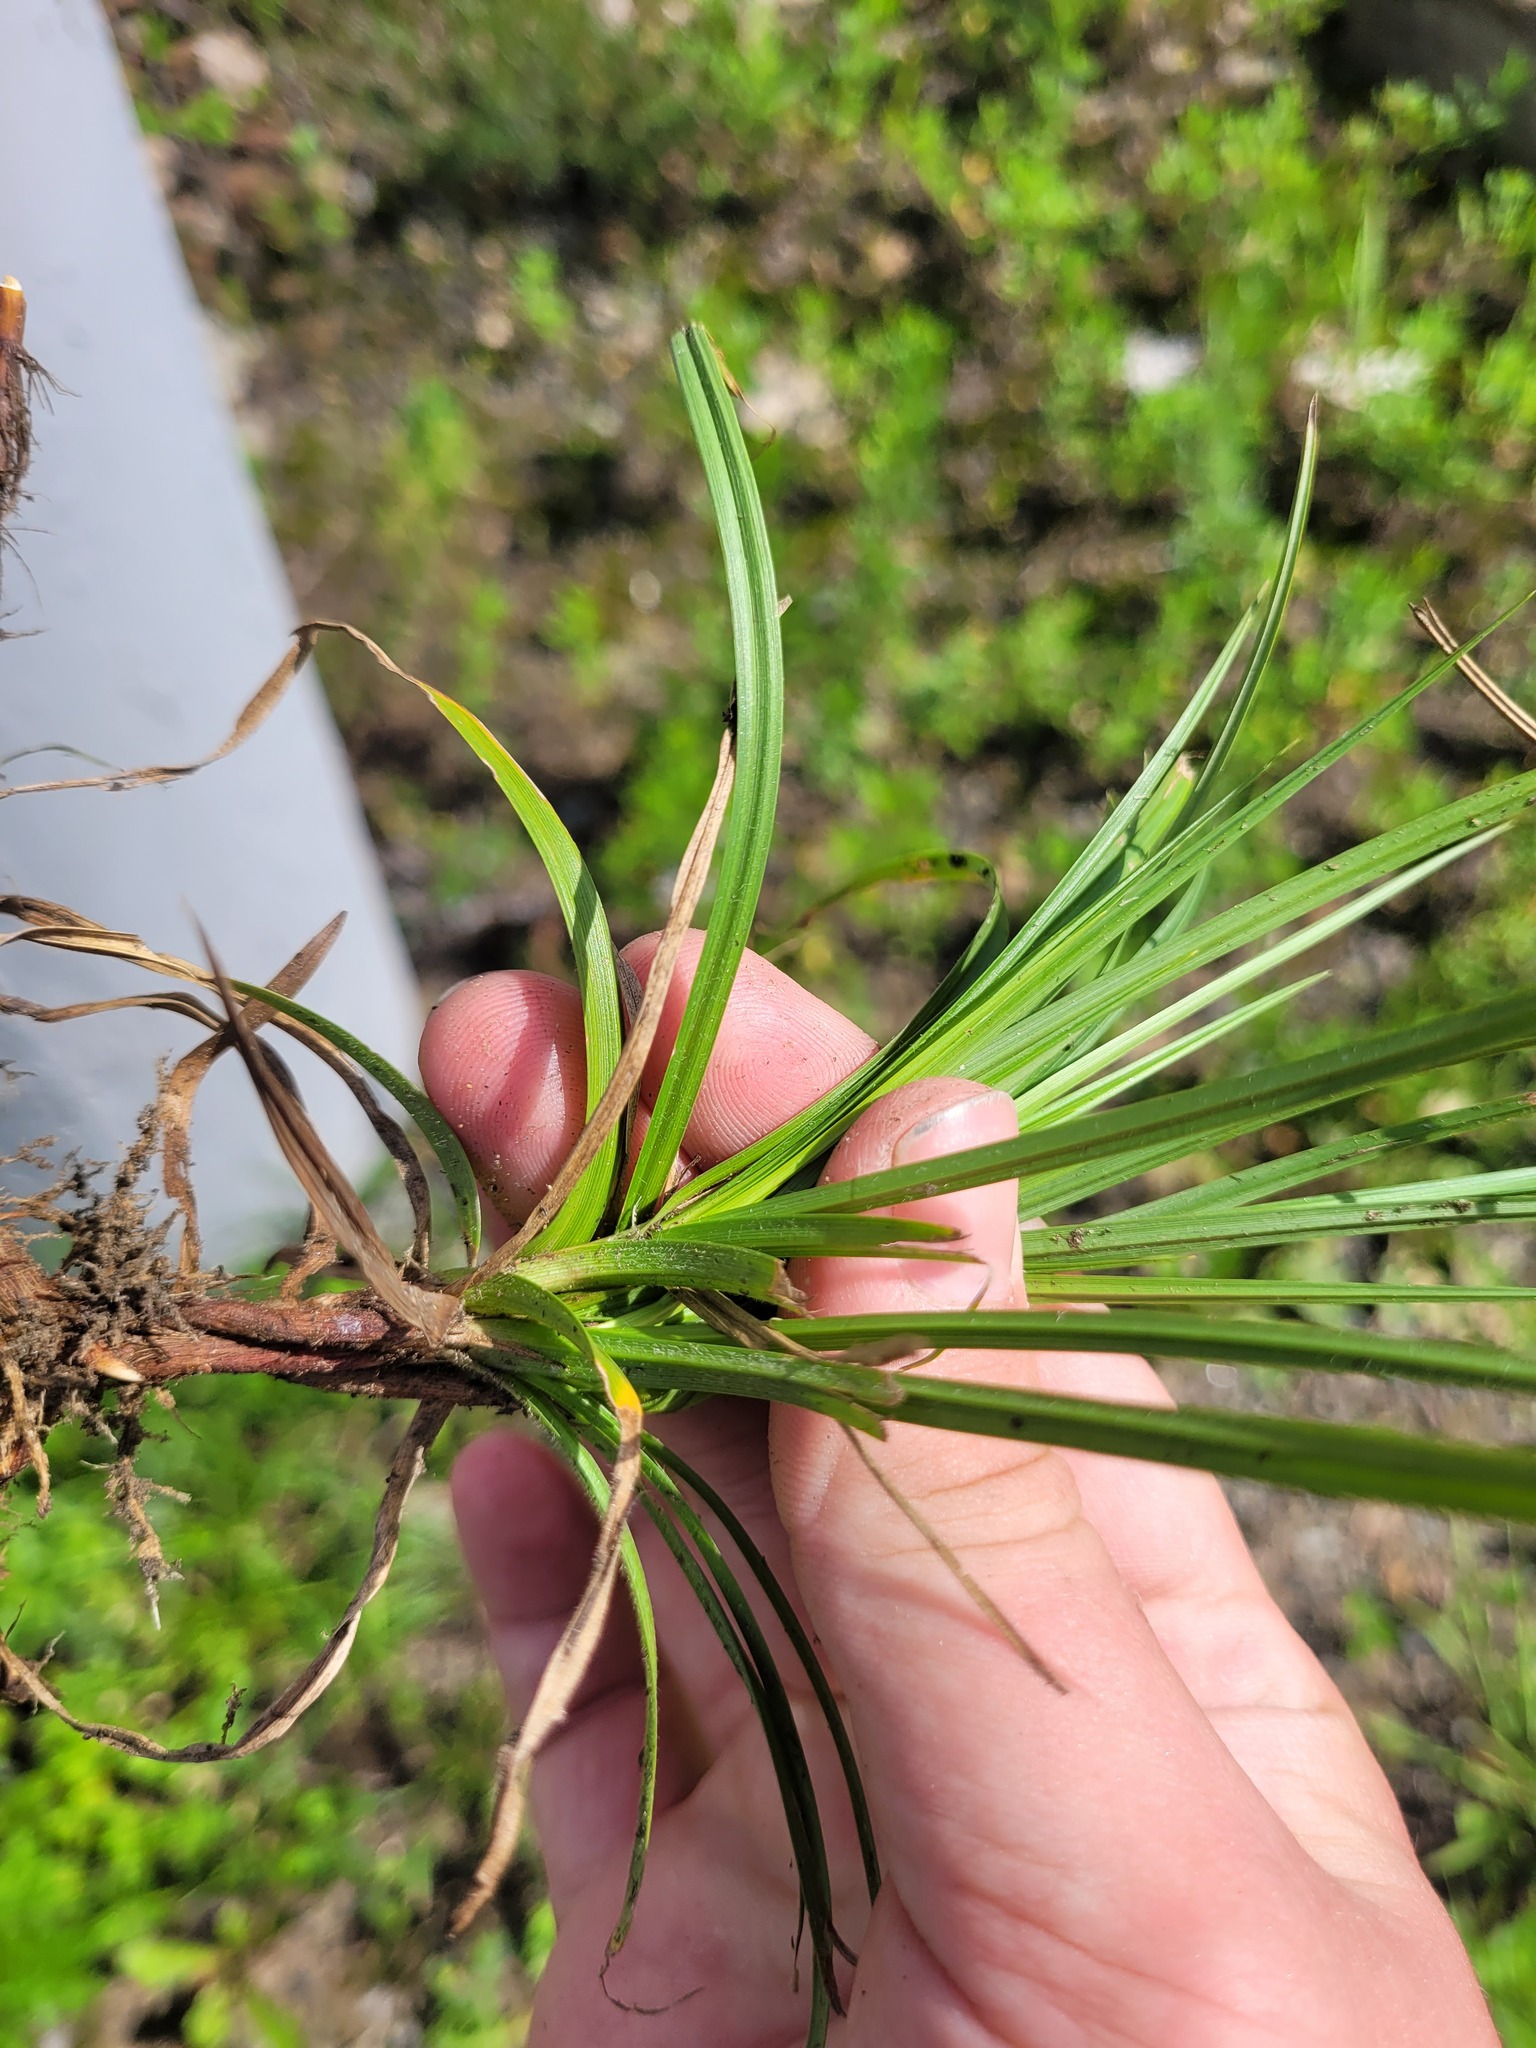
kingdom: Plantae
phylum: Tracheophyta
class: Liliopsida
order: Poales
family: Cyperaceae
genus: Carex
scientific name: Carex hirta
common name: Hairy sedge
